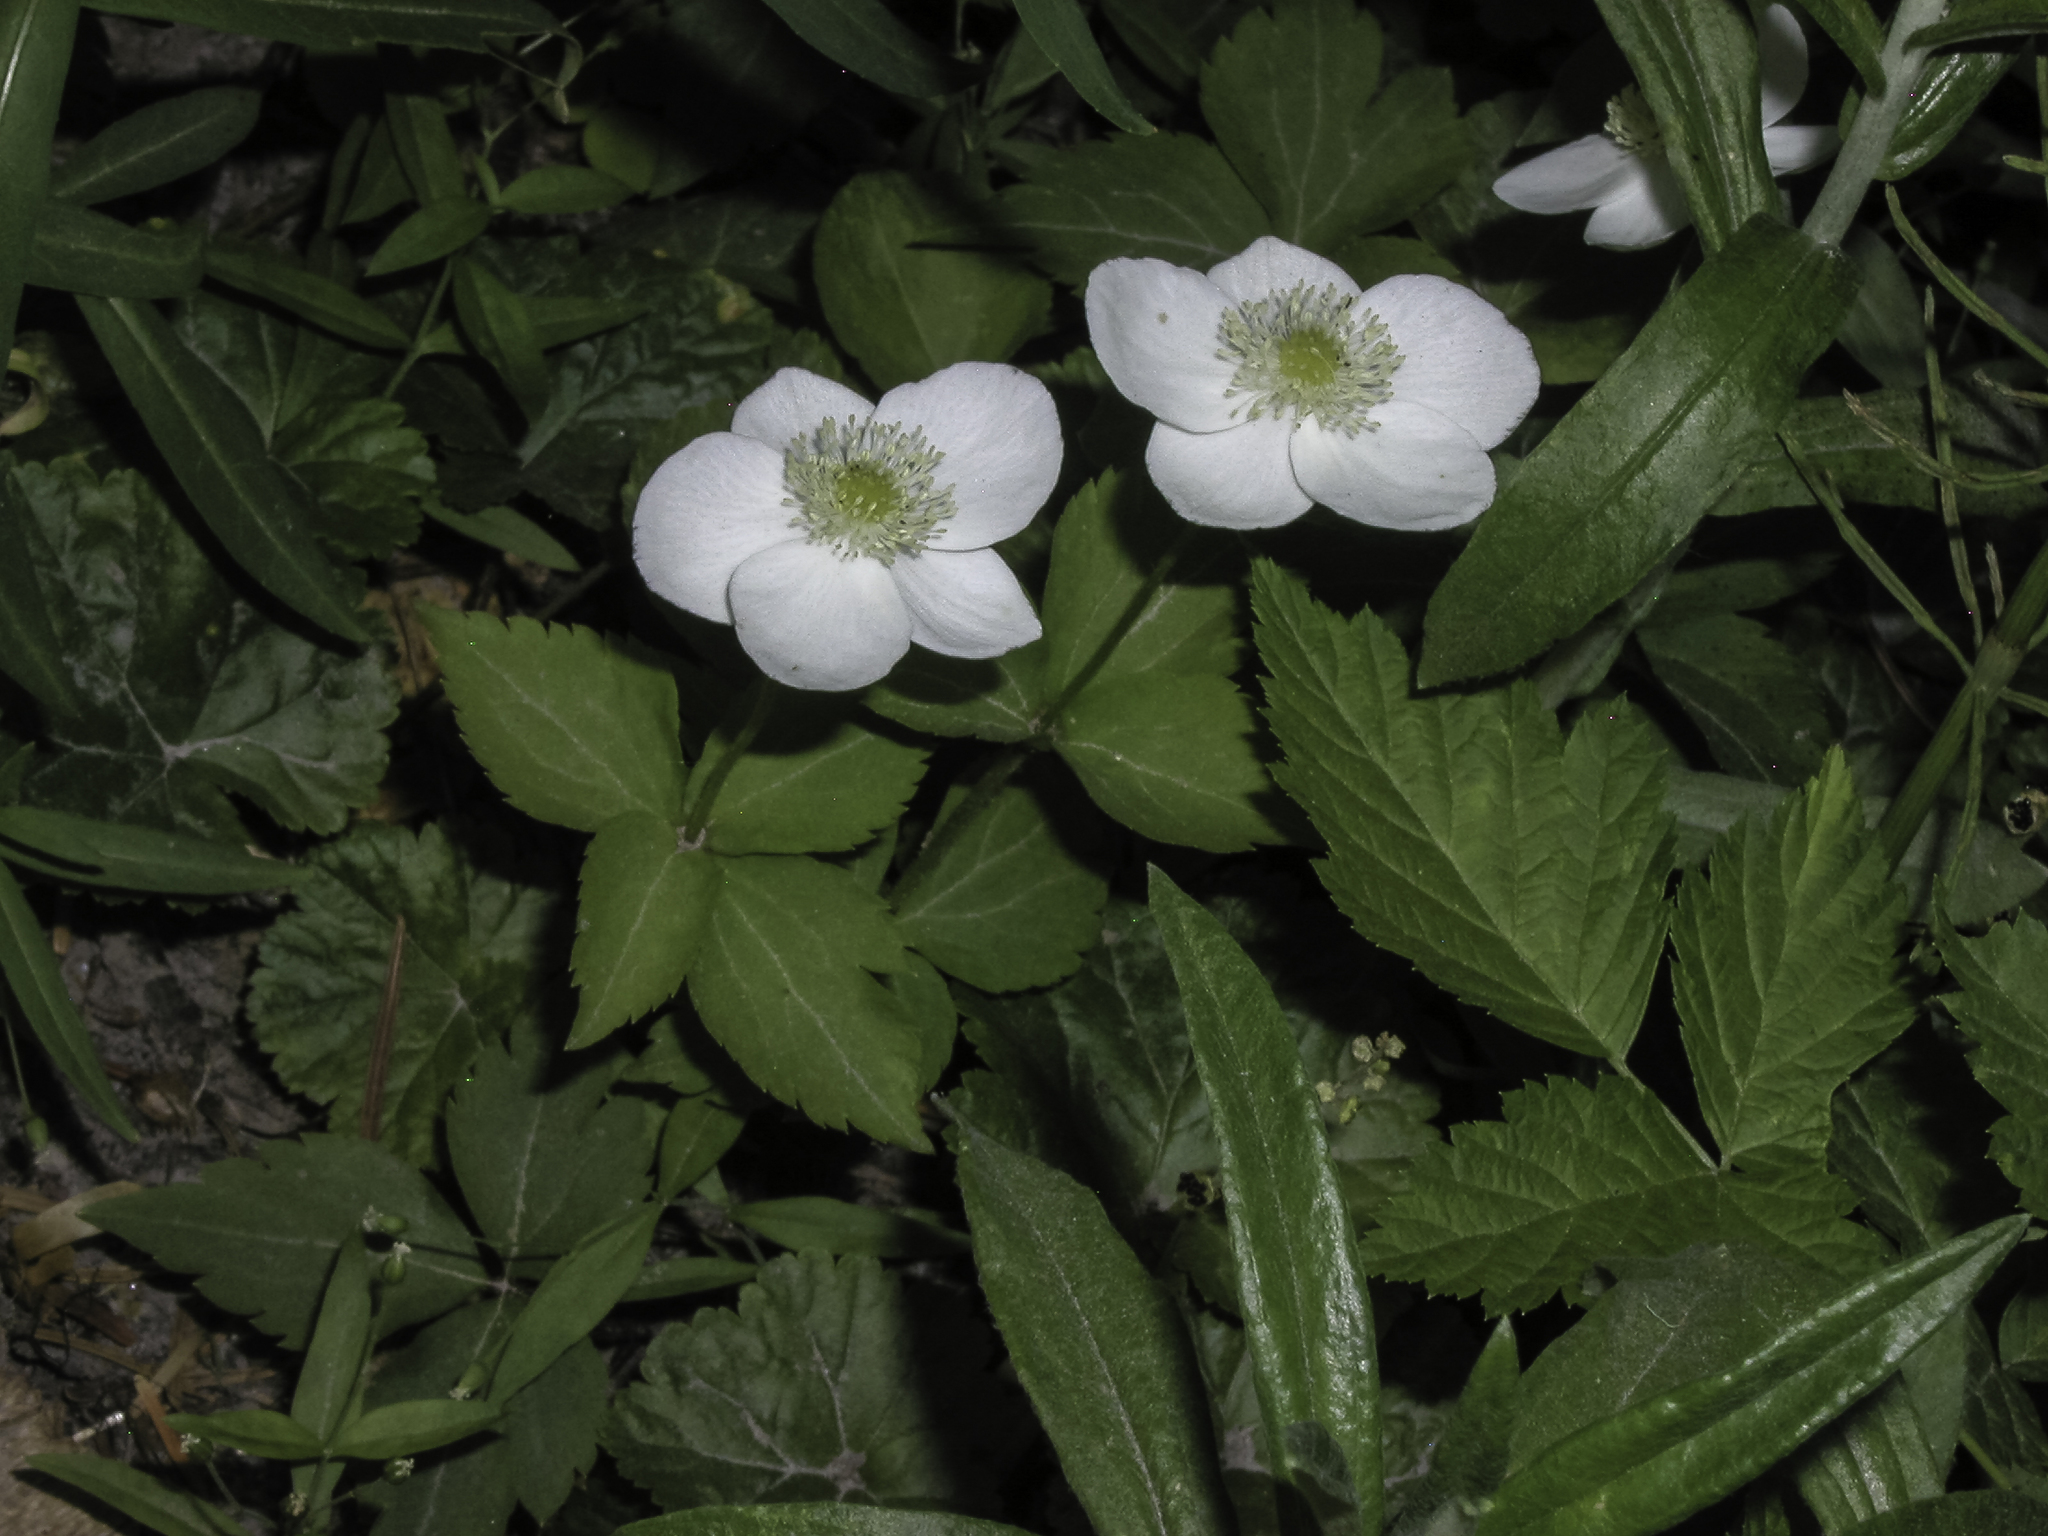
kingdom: Plantae
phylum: Tracheophyta
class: Magnoliopsida
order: Ranunculales
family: Ranunculaceae
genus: Anemonastrum
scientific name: Anemonastrum deltoideum
